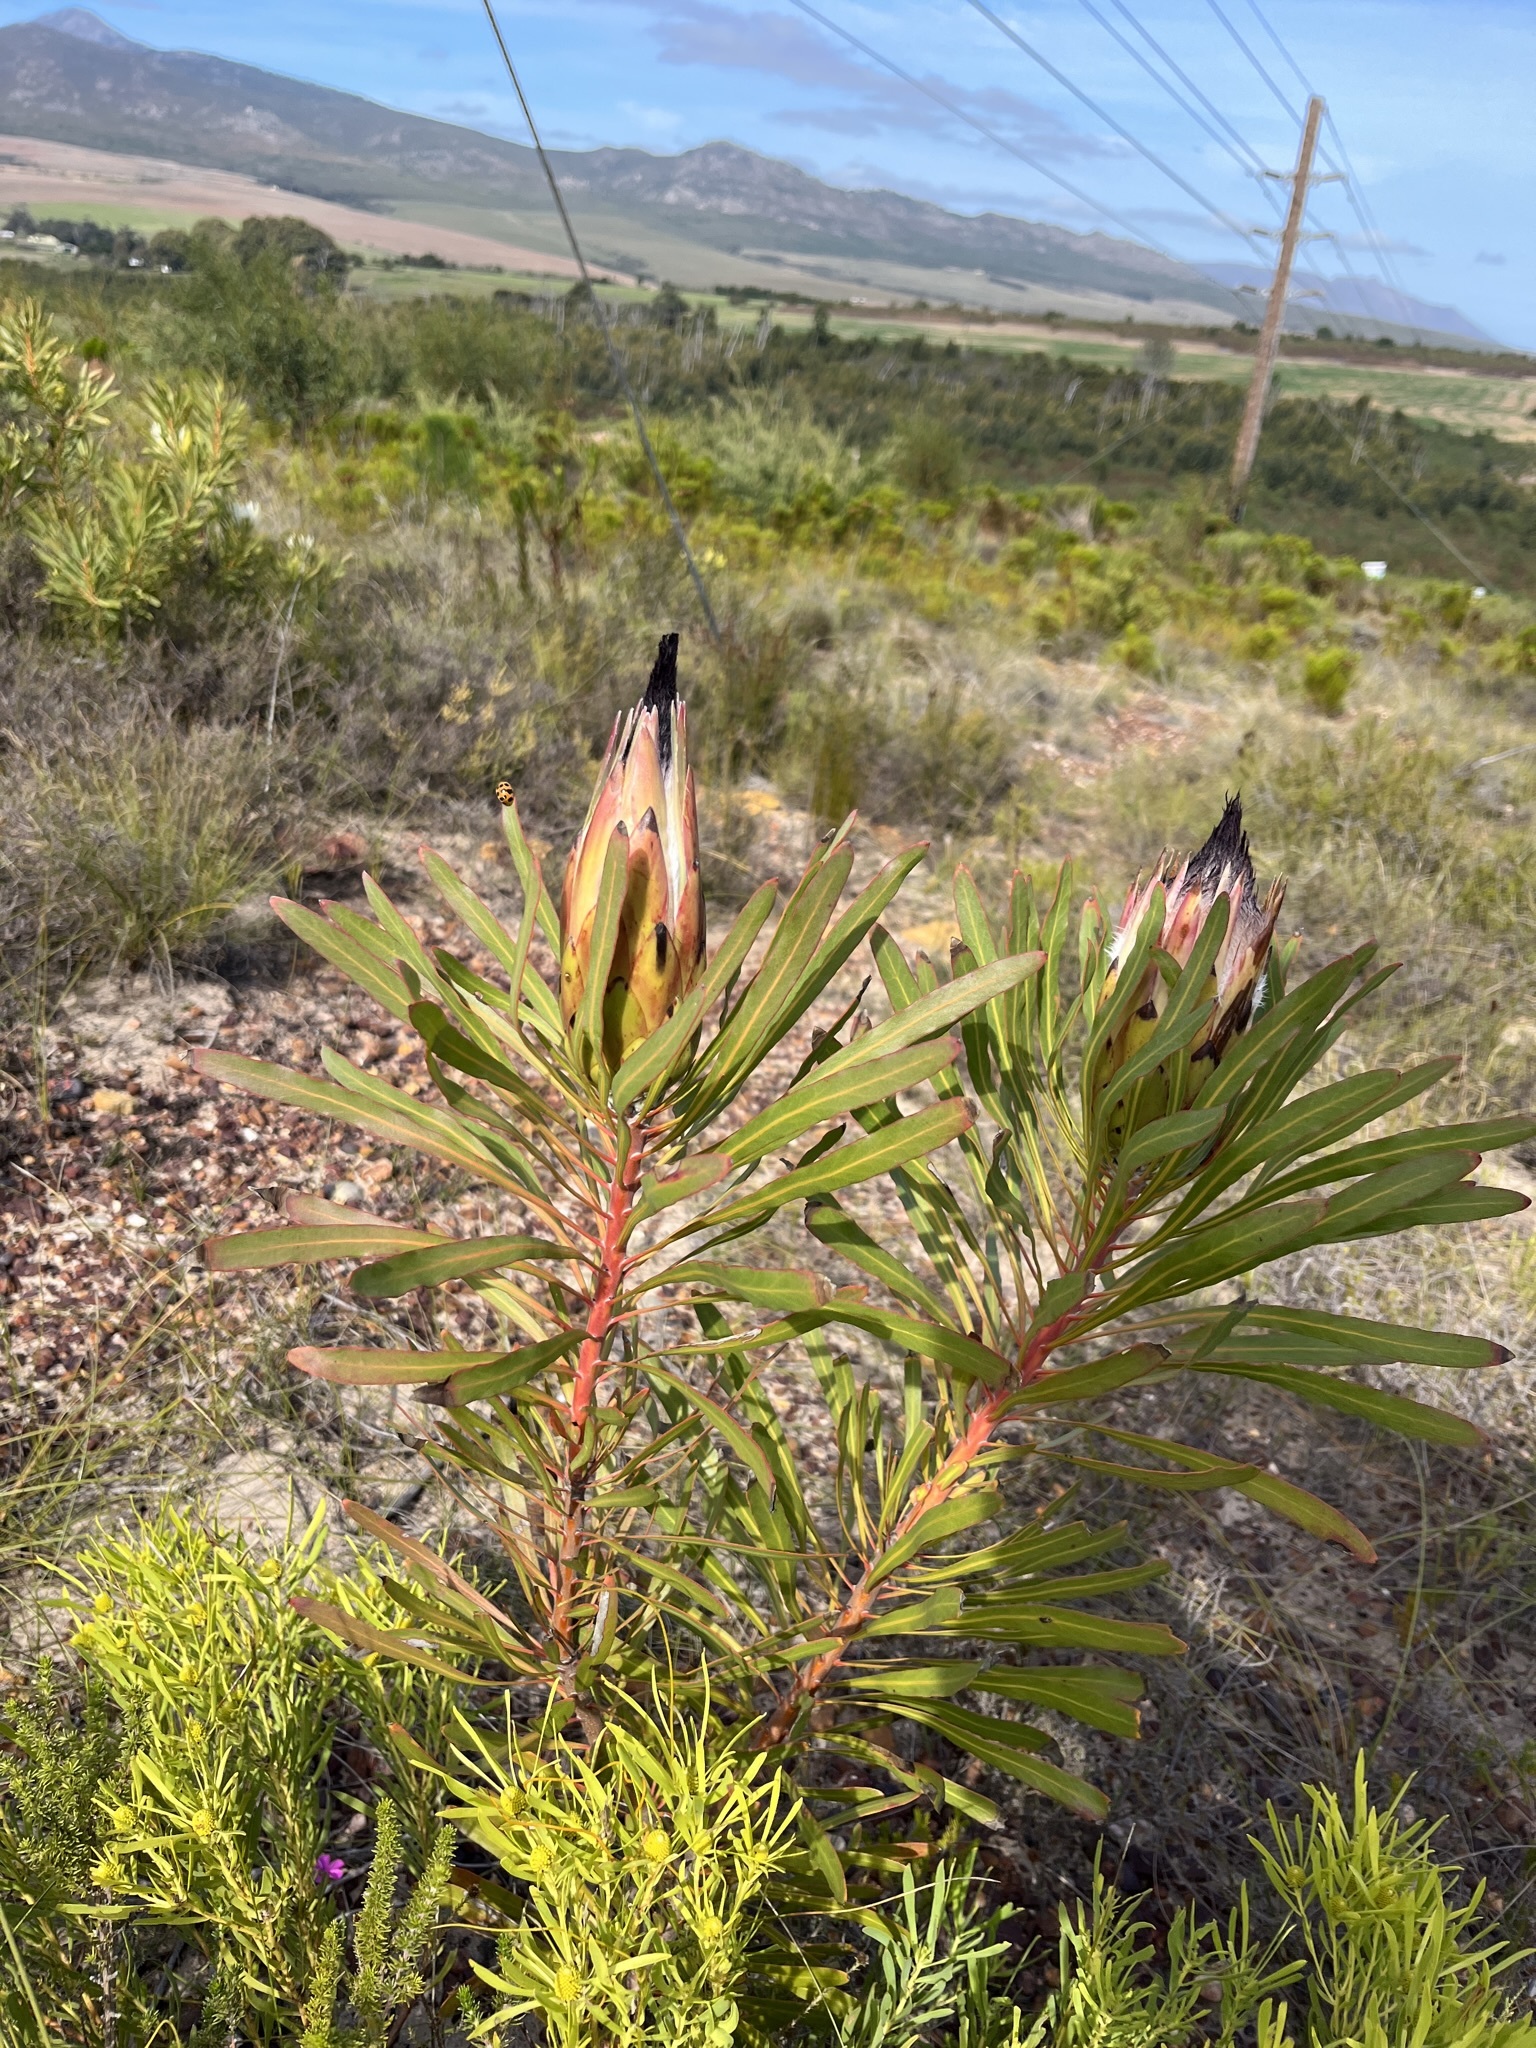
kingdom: Plantae
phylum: Tracheophyta
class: Magnoliopsida
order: Proteales
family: Proteaceae
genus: Protea
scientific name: Protea longifolia
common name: Long-leaf sugarbush
